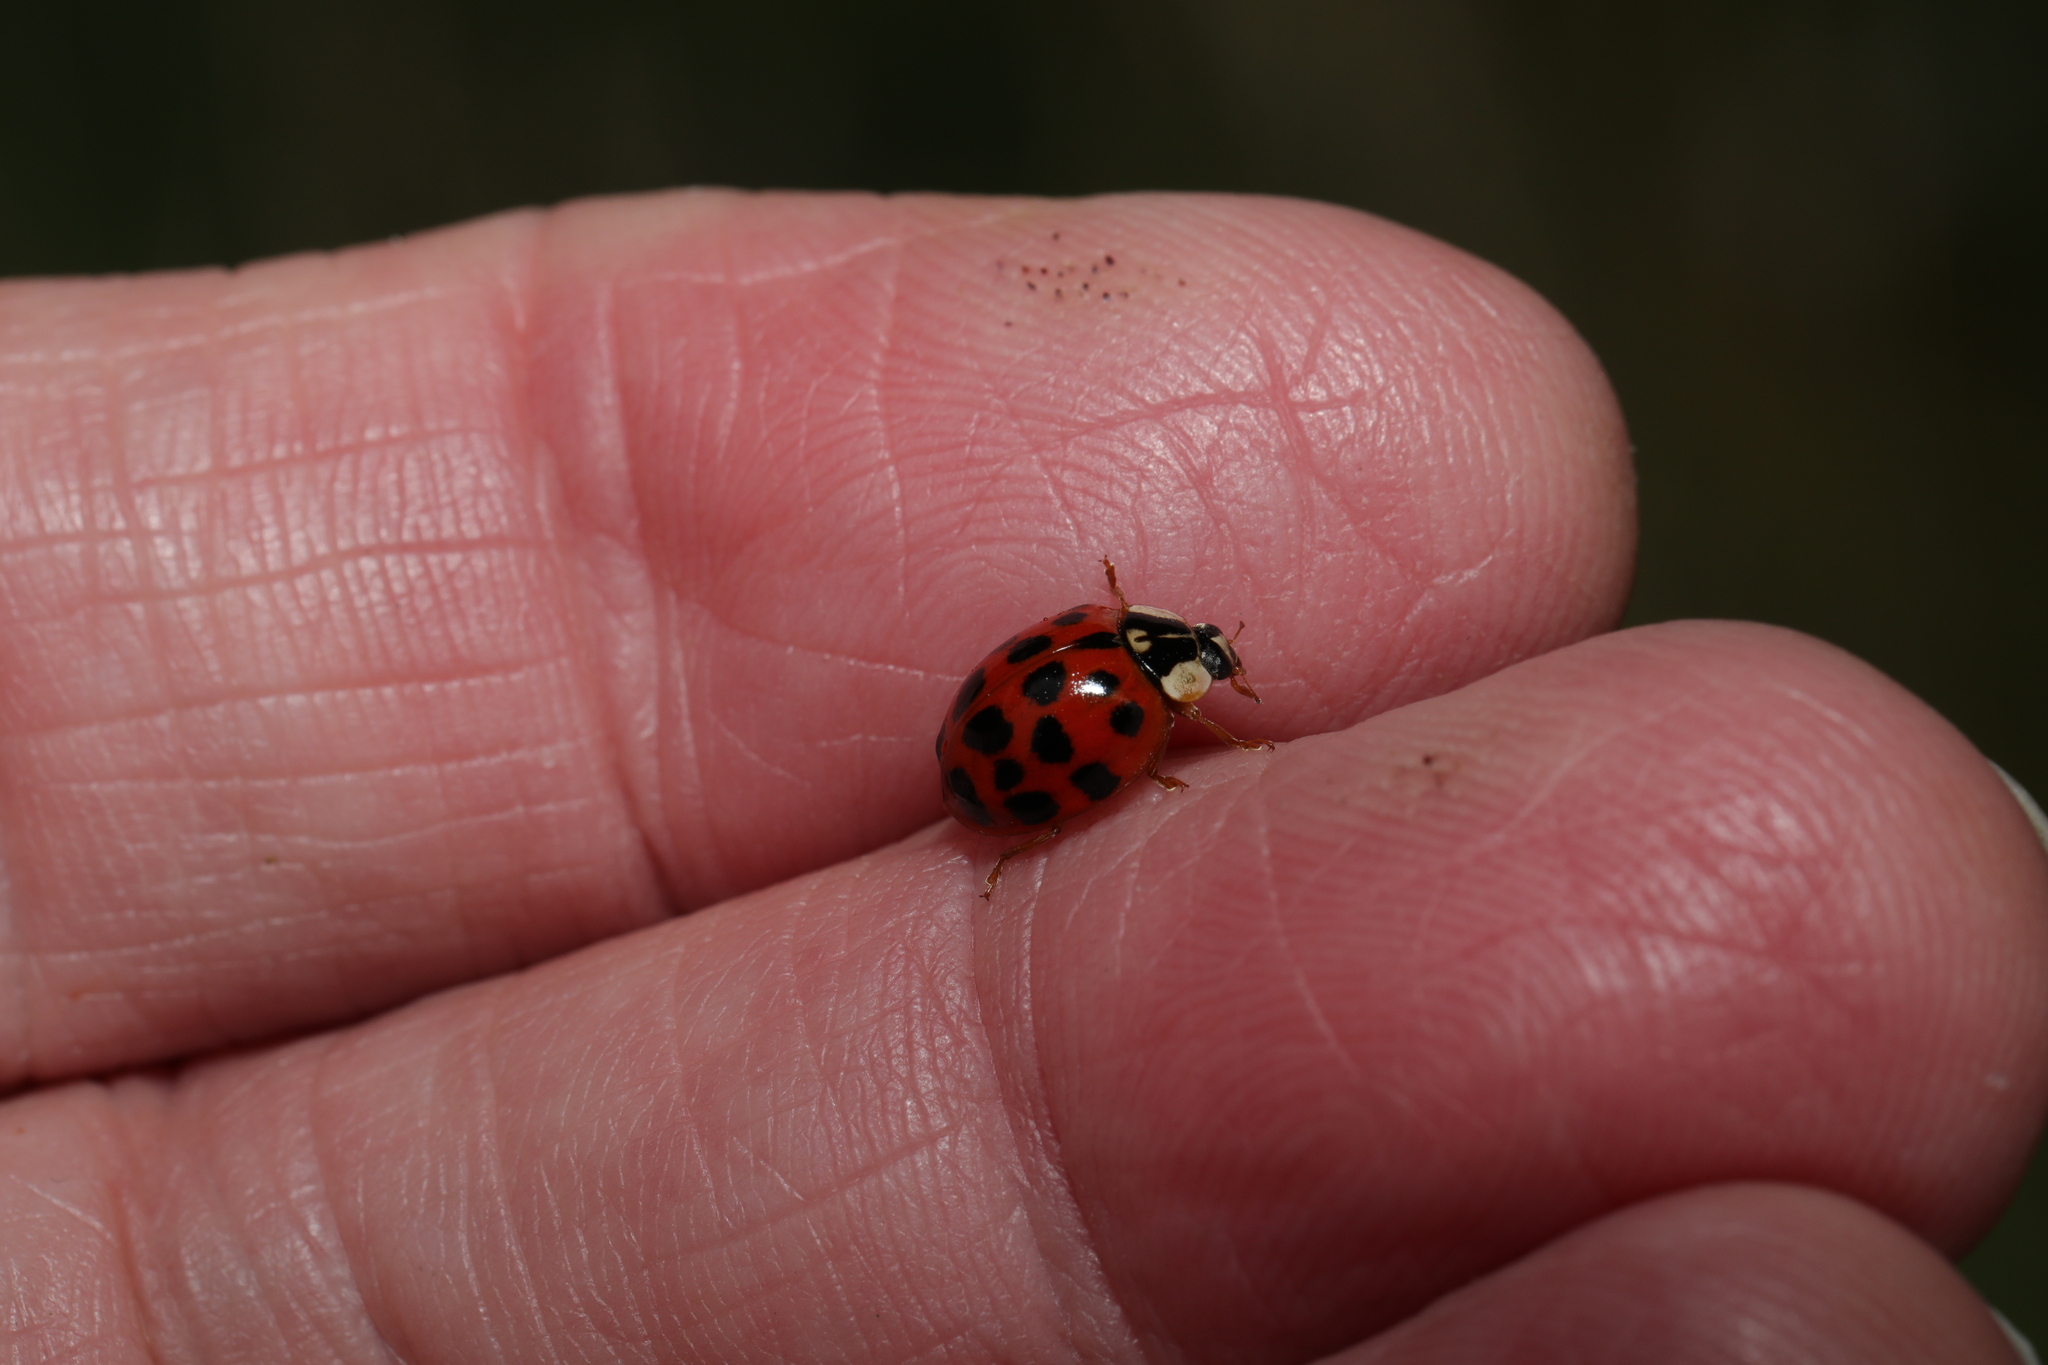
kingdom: Animalia
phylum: Arthropoda
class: Insecta
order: Coleoptera
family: Coccinellidae
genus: Harmonia
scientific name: Harmonia axyridis
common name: Harlequin ladybird
